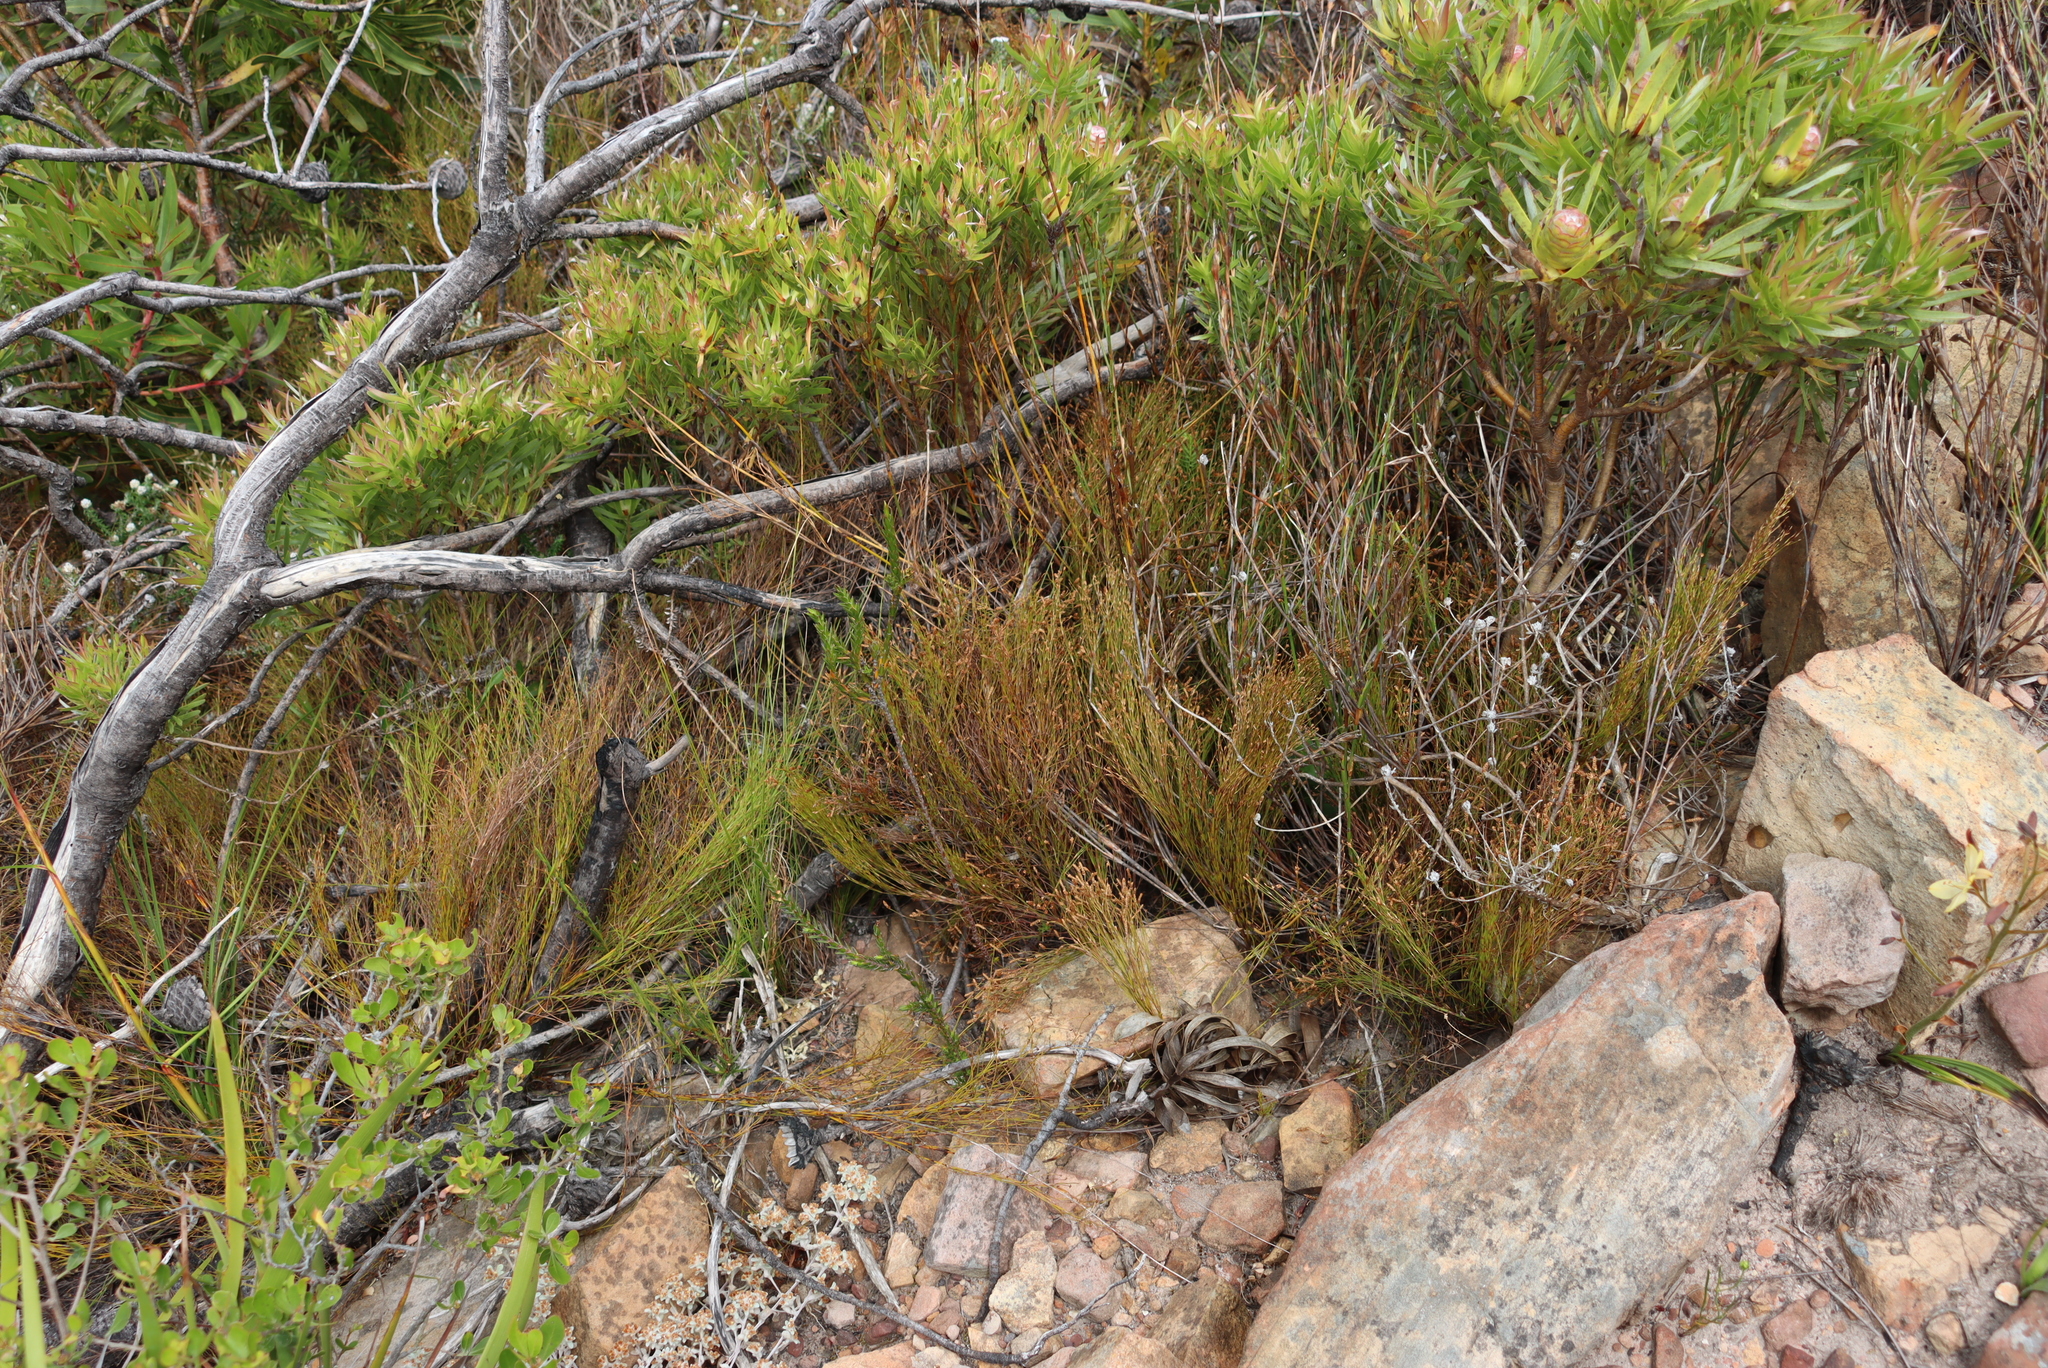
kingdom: Plantae
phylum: Tracheophyta
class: Magnoliopsida
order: Proteales
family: Proteaceae
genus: Leucadendron
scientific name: Leucadendron xanthoconus
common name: Sickle-leaf conebush
